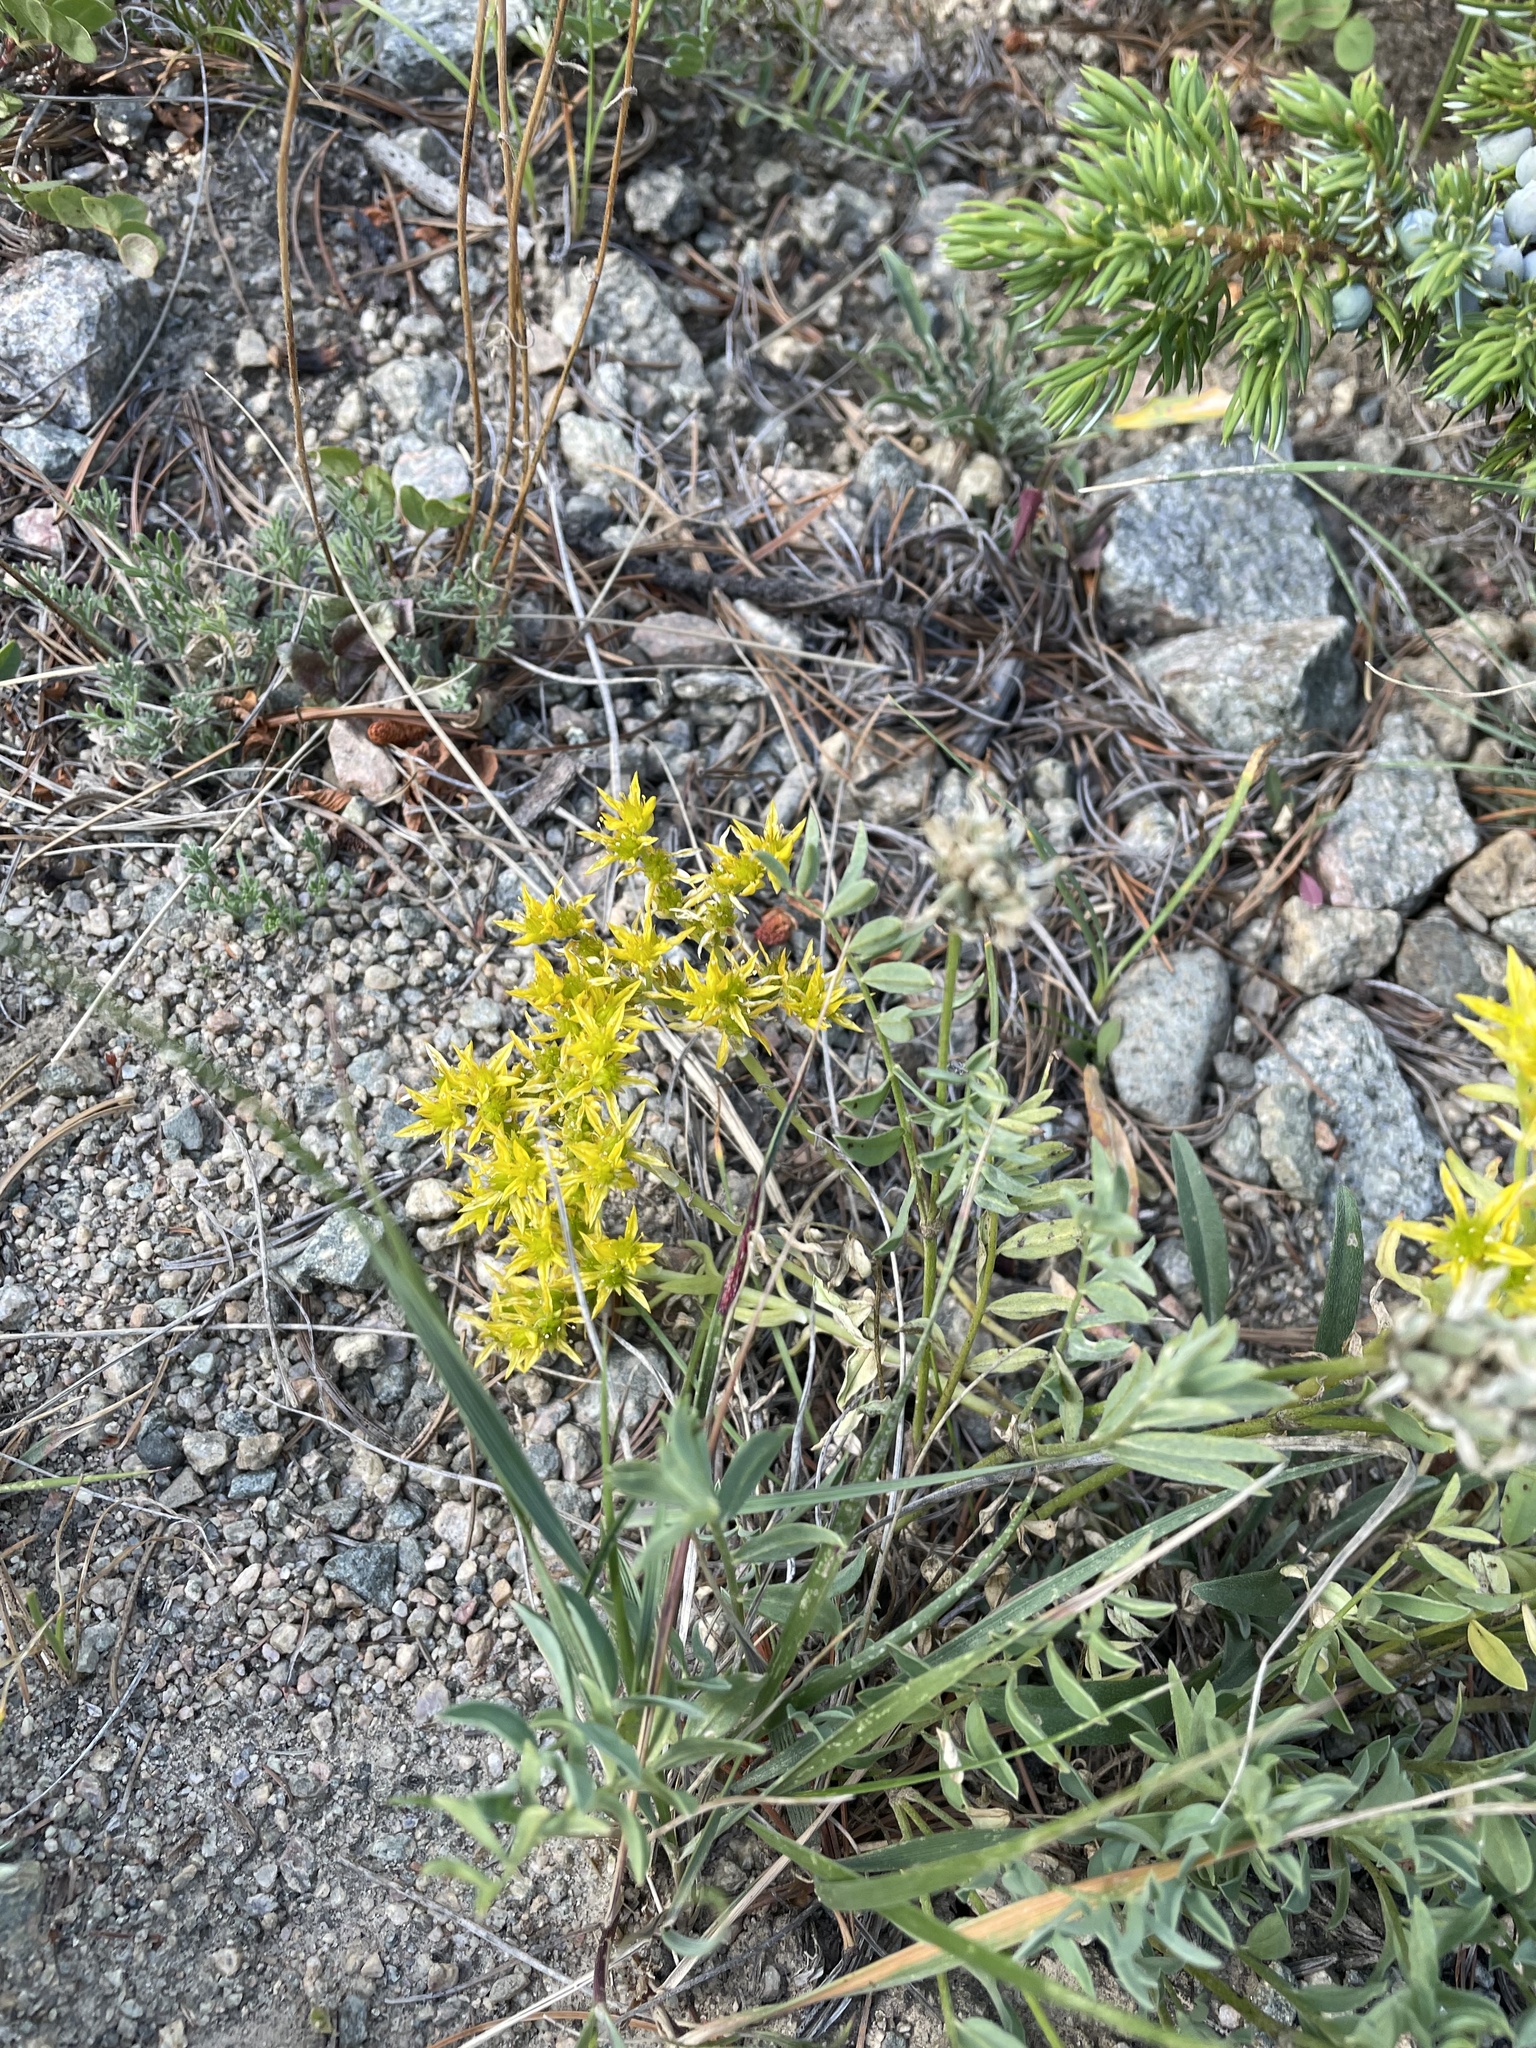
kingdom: Plantae
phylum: Tracheophyta
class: Magnoliopsida
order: Saxifragales
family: Crassulaceae
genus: Sedum
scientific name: Sedum lanceolatum
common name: Common stonecrop
